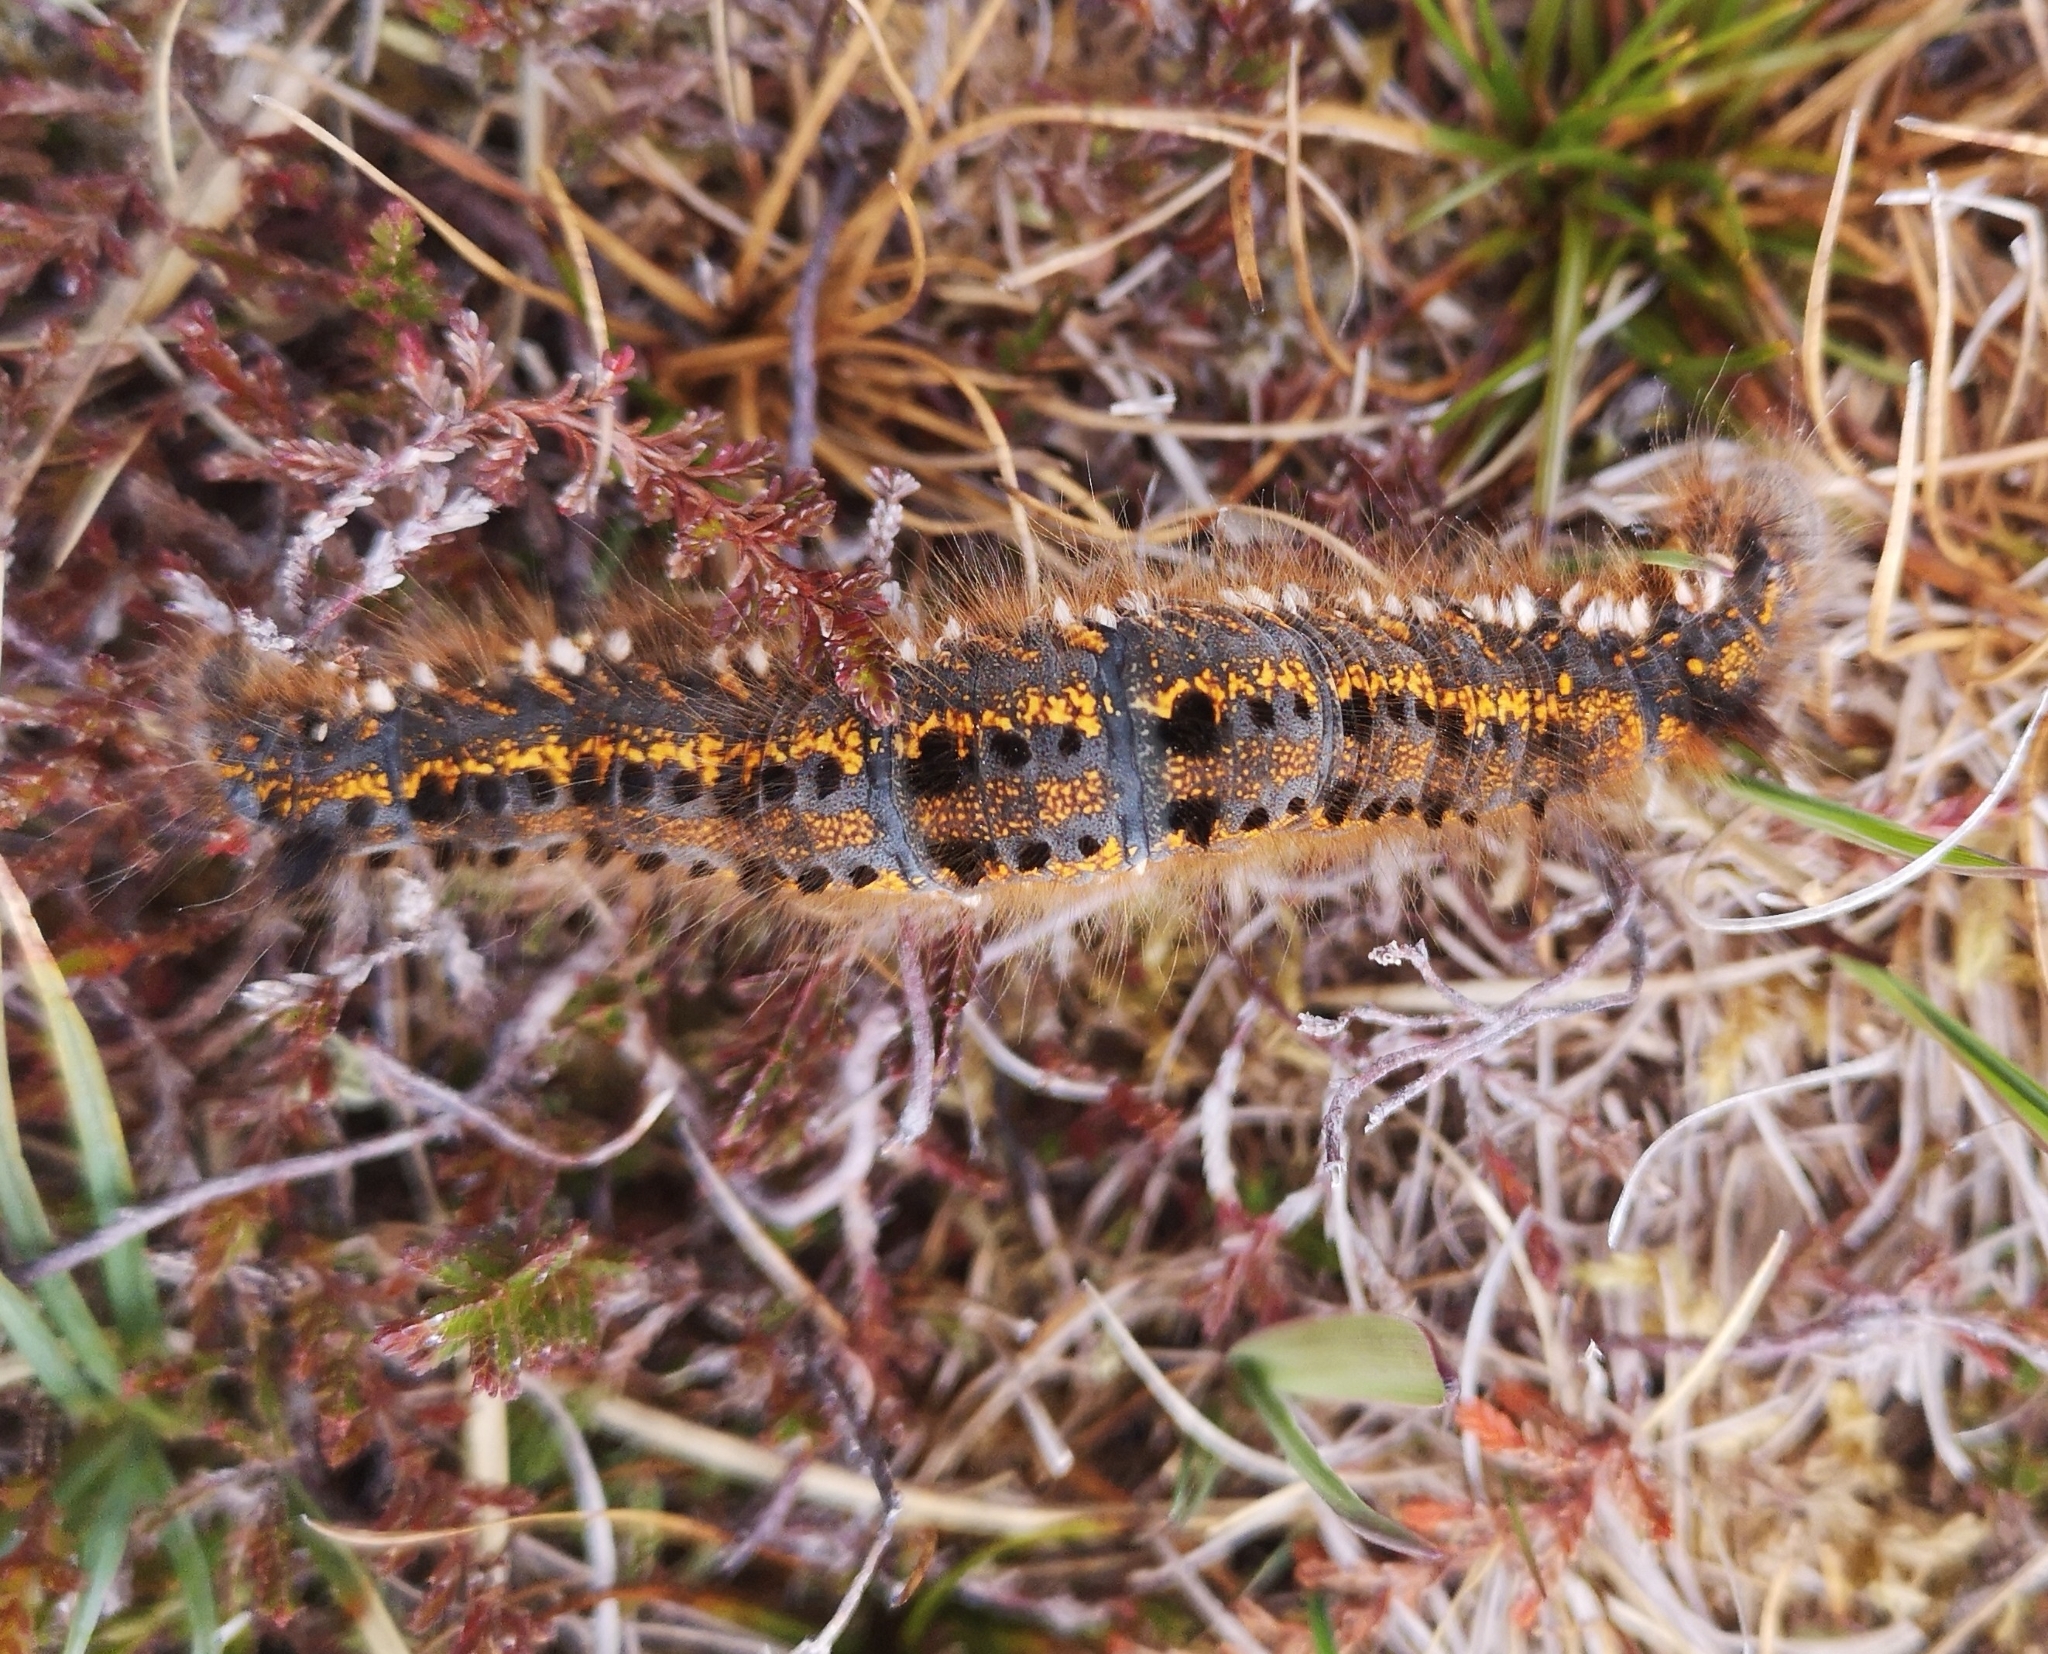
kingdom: Animalia
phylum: Arthropoda
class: Insecta
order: Lepidoptera
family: Lasiocampidae
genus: Euthrix
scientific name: Euthrix potatoria
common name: Drinker
